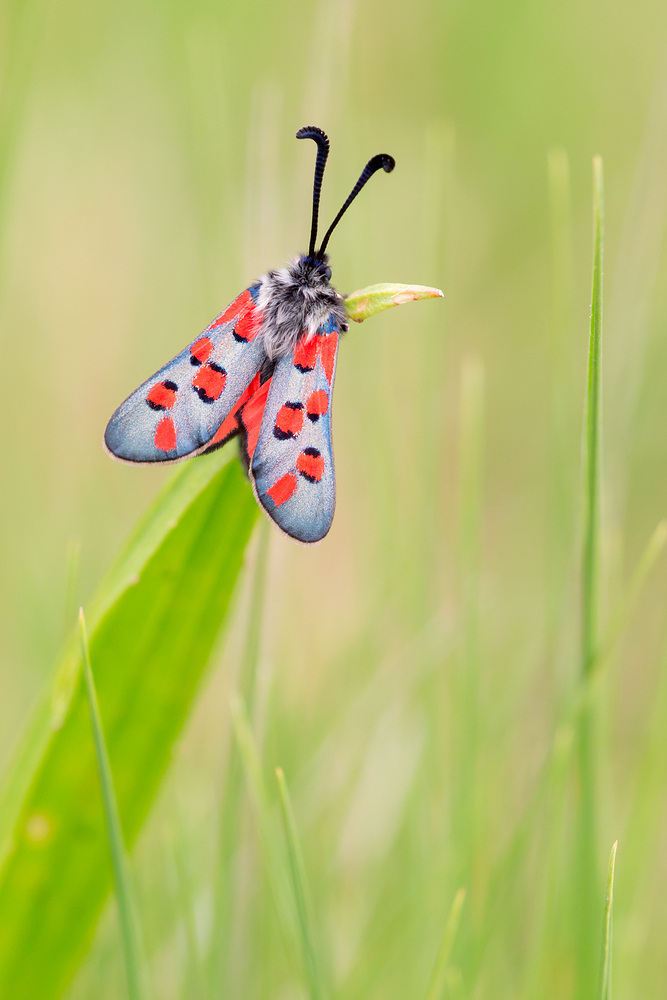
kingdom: Animalia
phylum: Arthropoda
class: Insecta
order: Lepidoptera
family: Zygaenidae
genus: Zygaena
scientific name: Zygaena rhadamanthus
